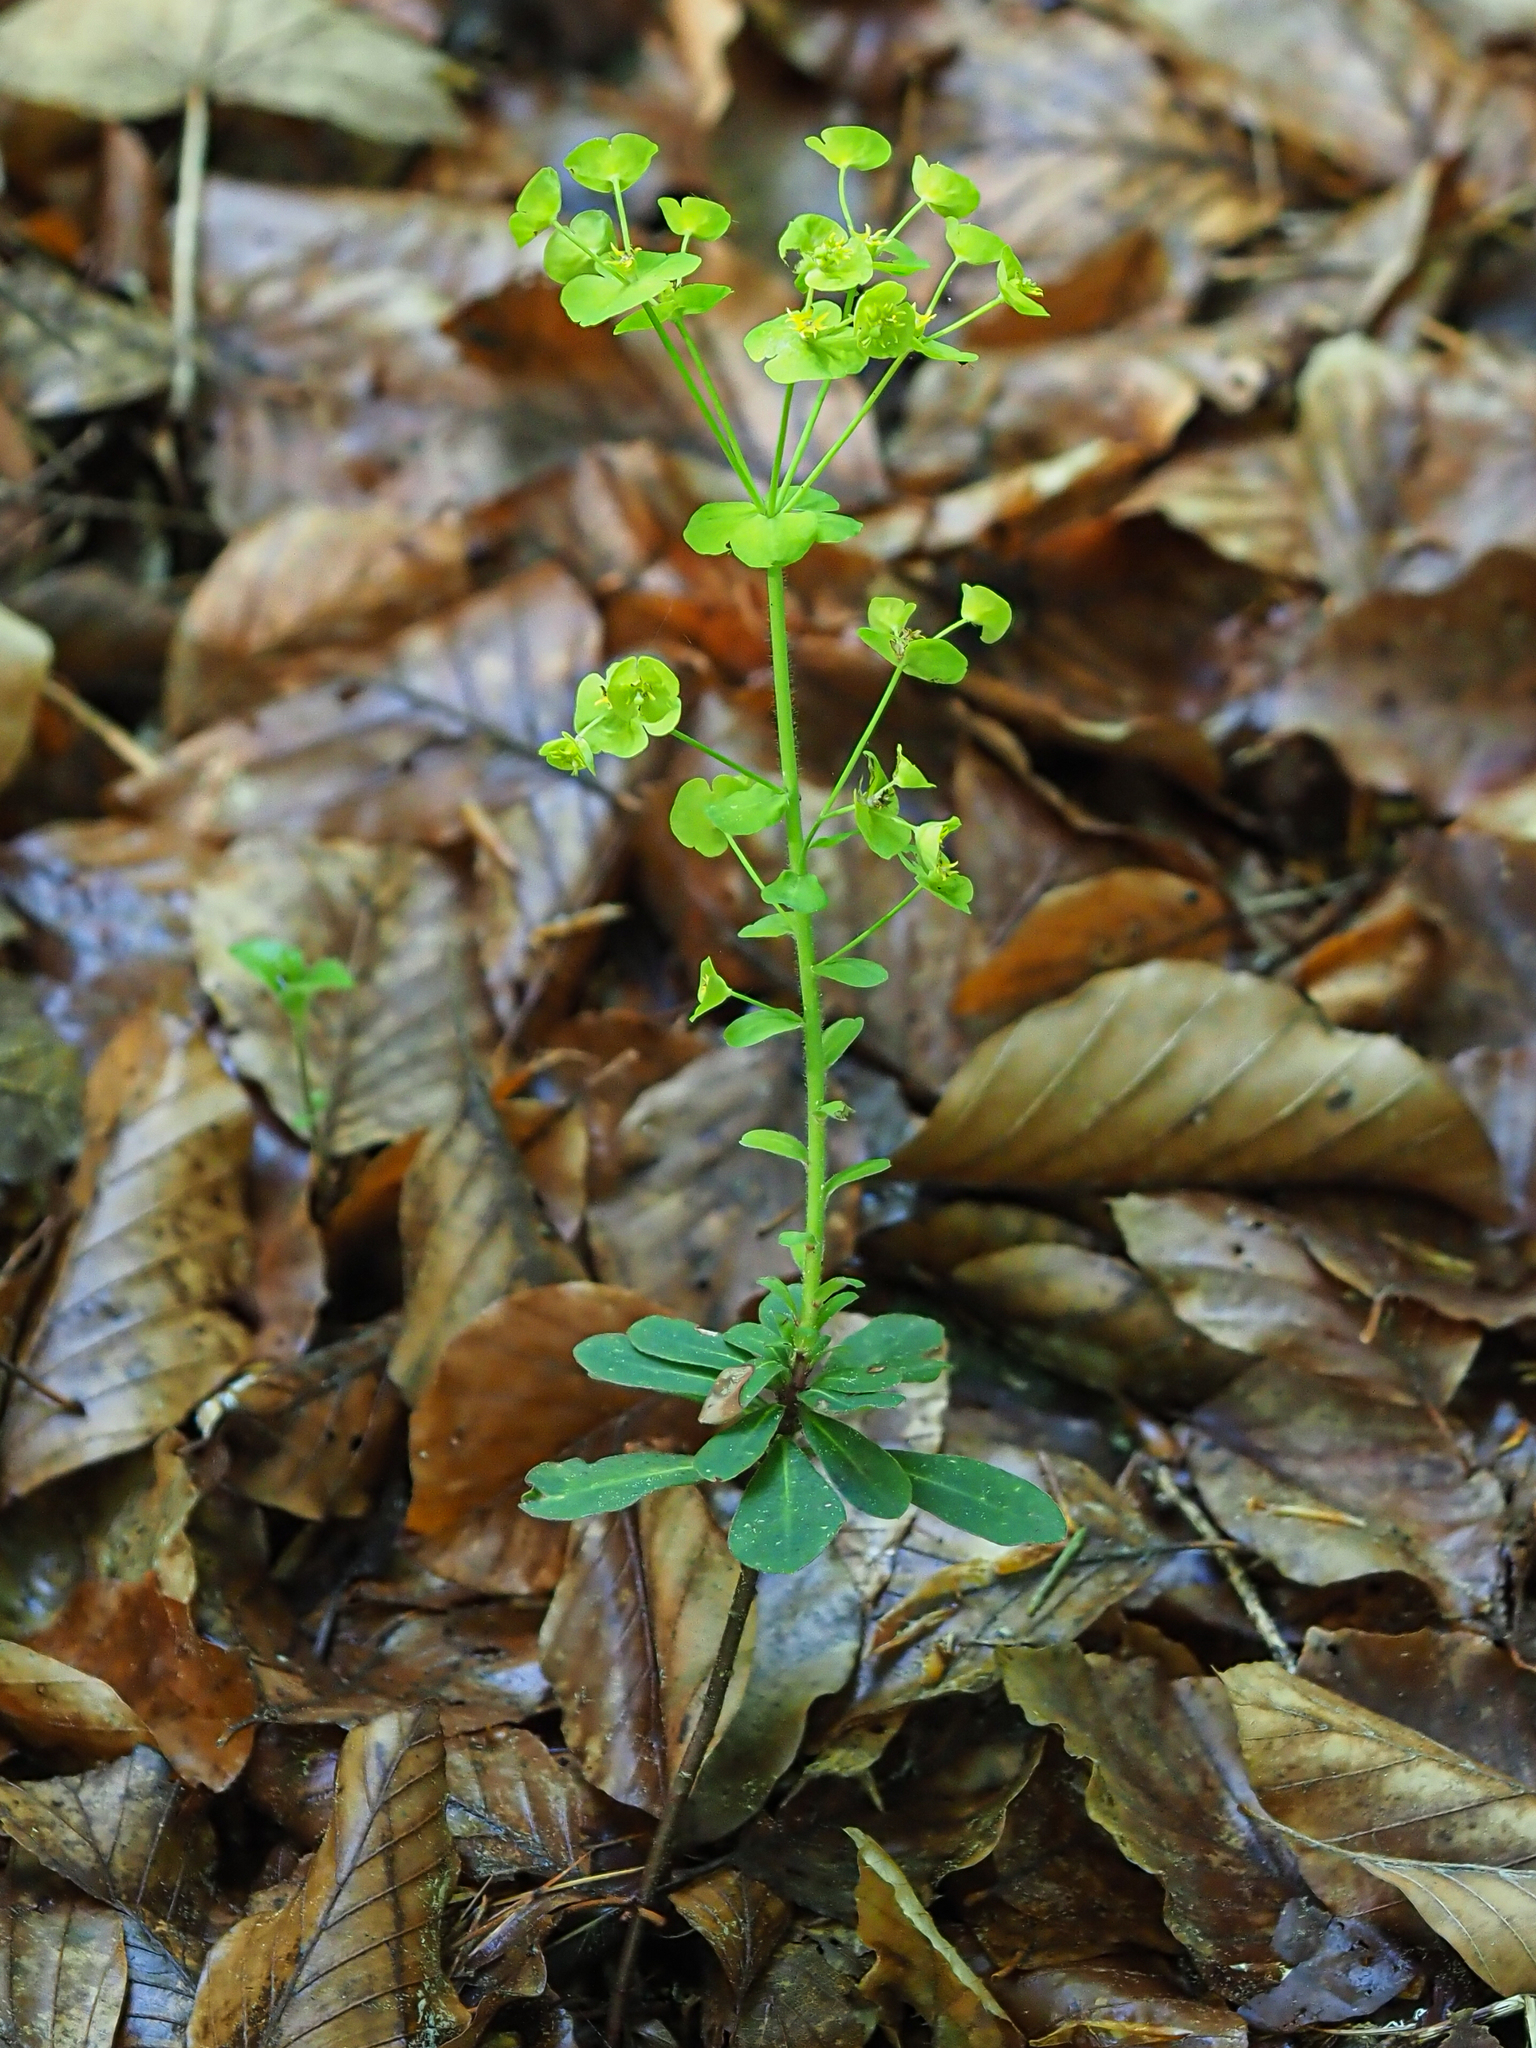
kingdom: Plantae
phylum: Tracheophyta
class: Magnoliopsida
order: Malpighiales
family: Euphorbiaceae
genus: Euphorbia
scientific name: Euphorbia amygdaloides
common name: Wood spurge
